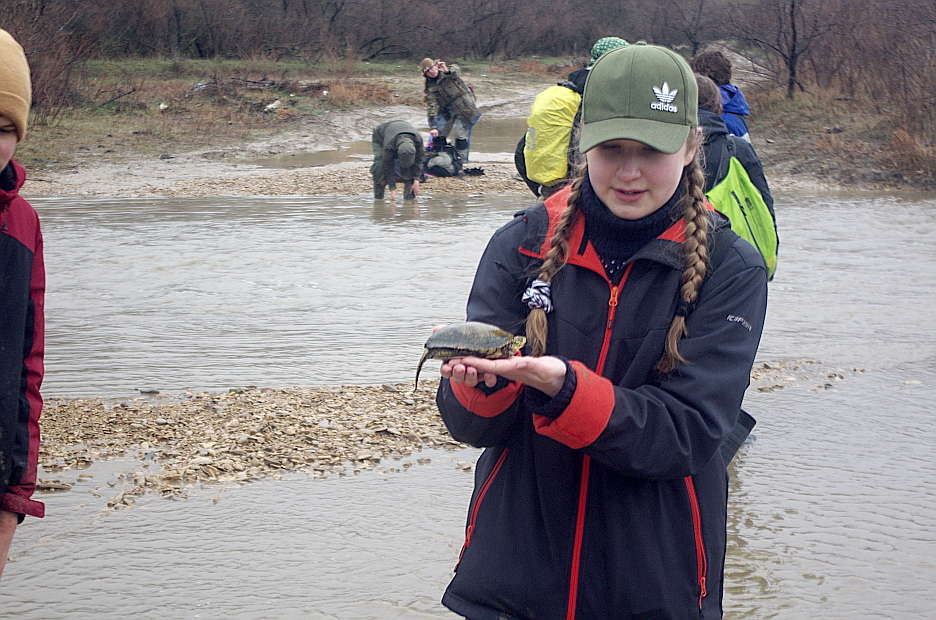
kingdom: Animalia
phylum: Chordata
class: Testudines
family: Emydidae
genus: Emys
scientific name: Emys orbicularis
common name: European pond turtle
